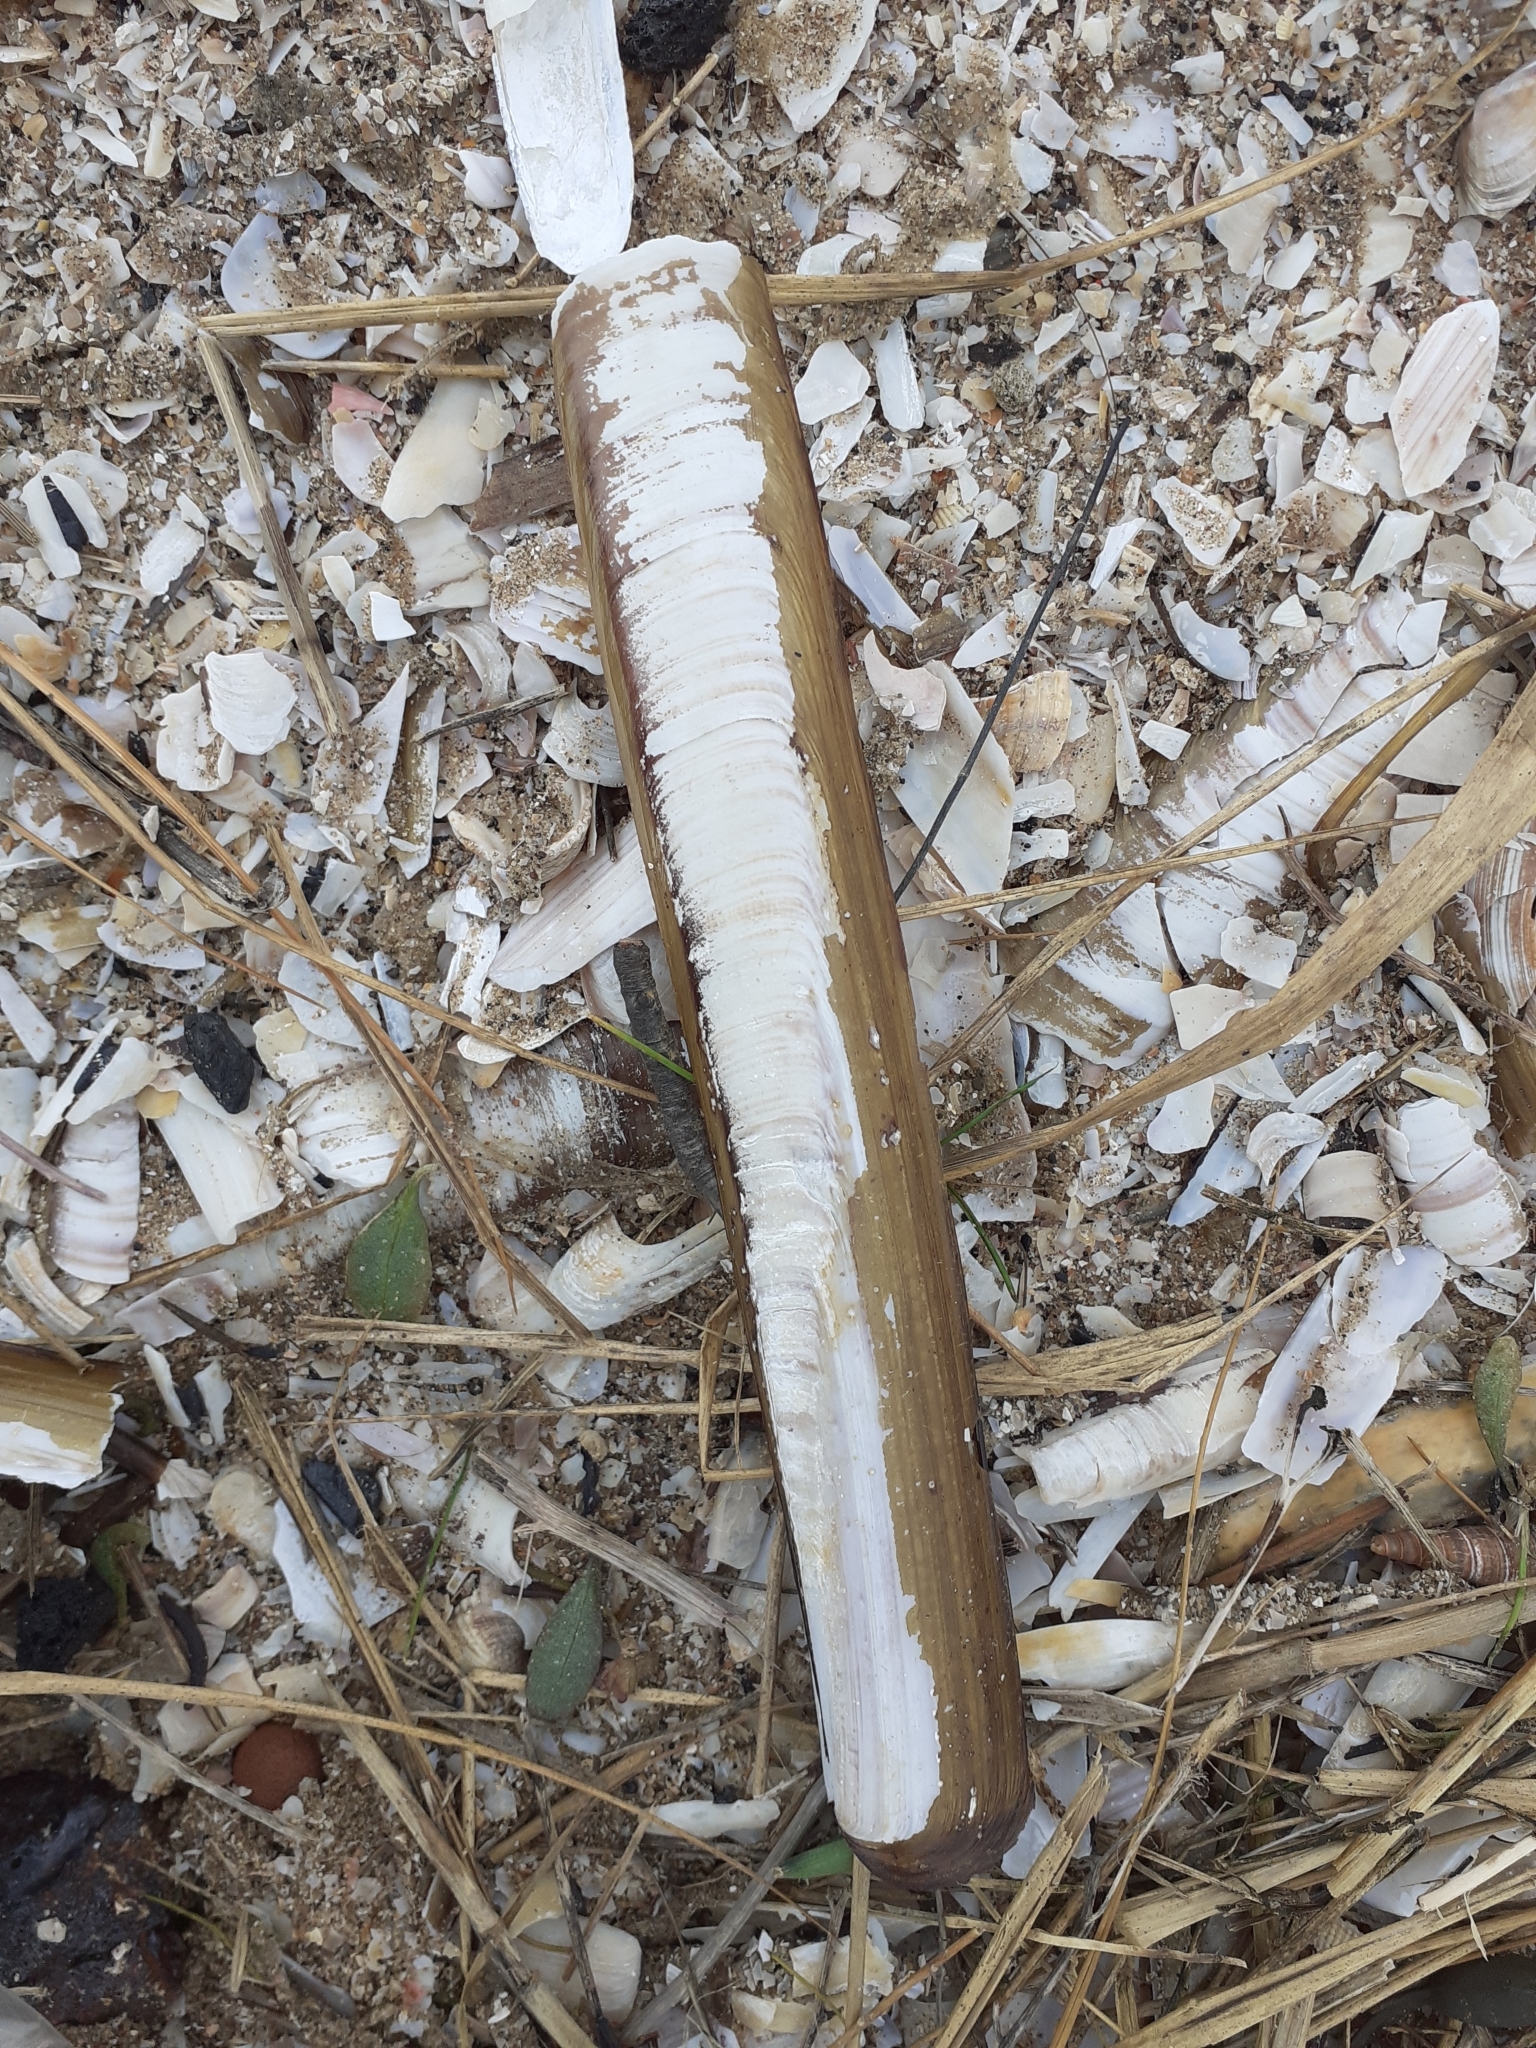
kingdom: Animalia
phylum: Mollusca
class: Bivalvia
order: Adapedonta
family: Pharidae
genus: Ensis
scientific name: Ensis siliqua
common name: Pod razor shell
